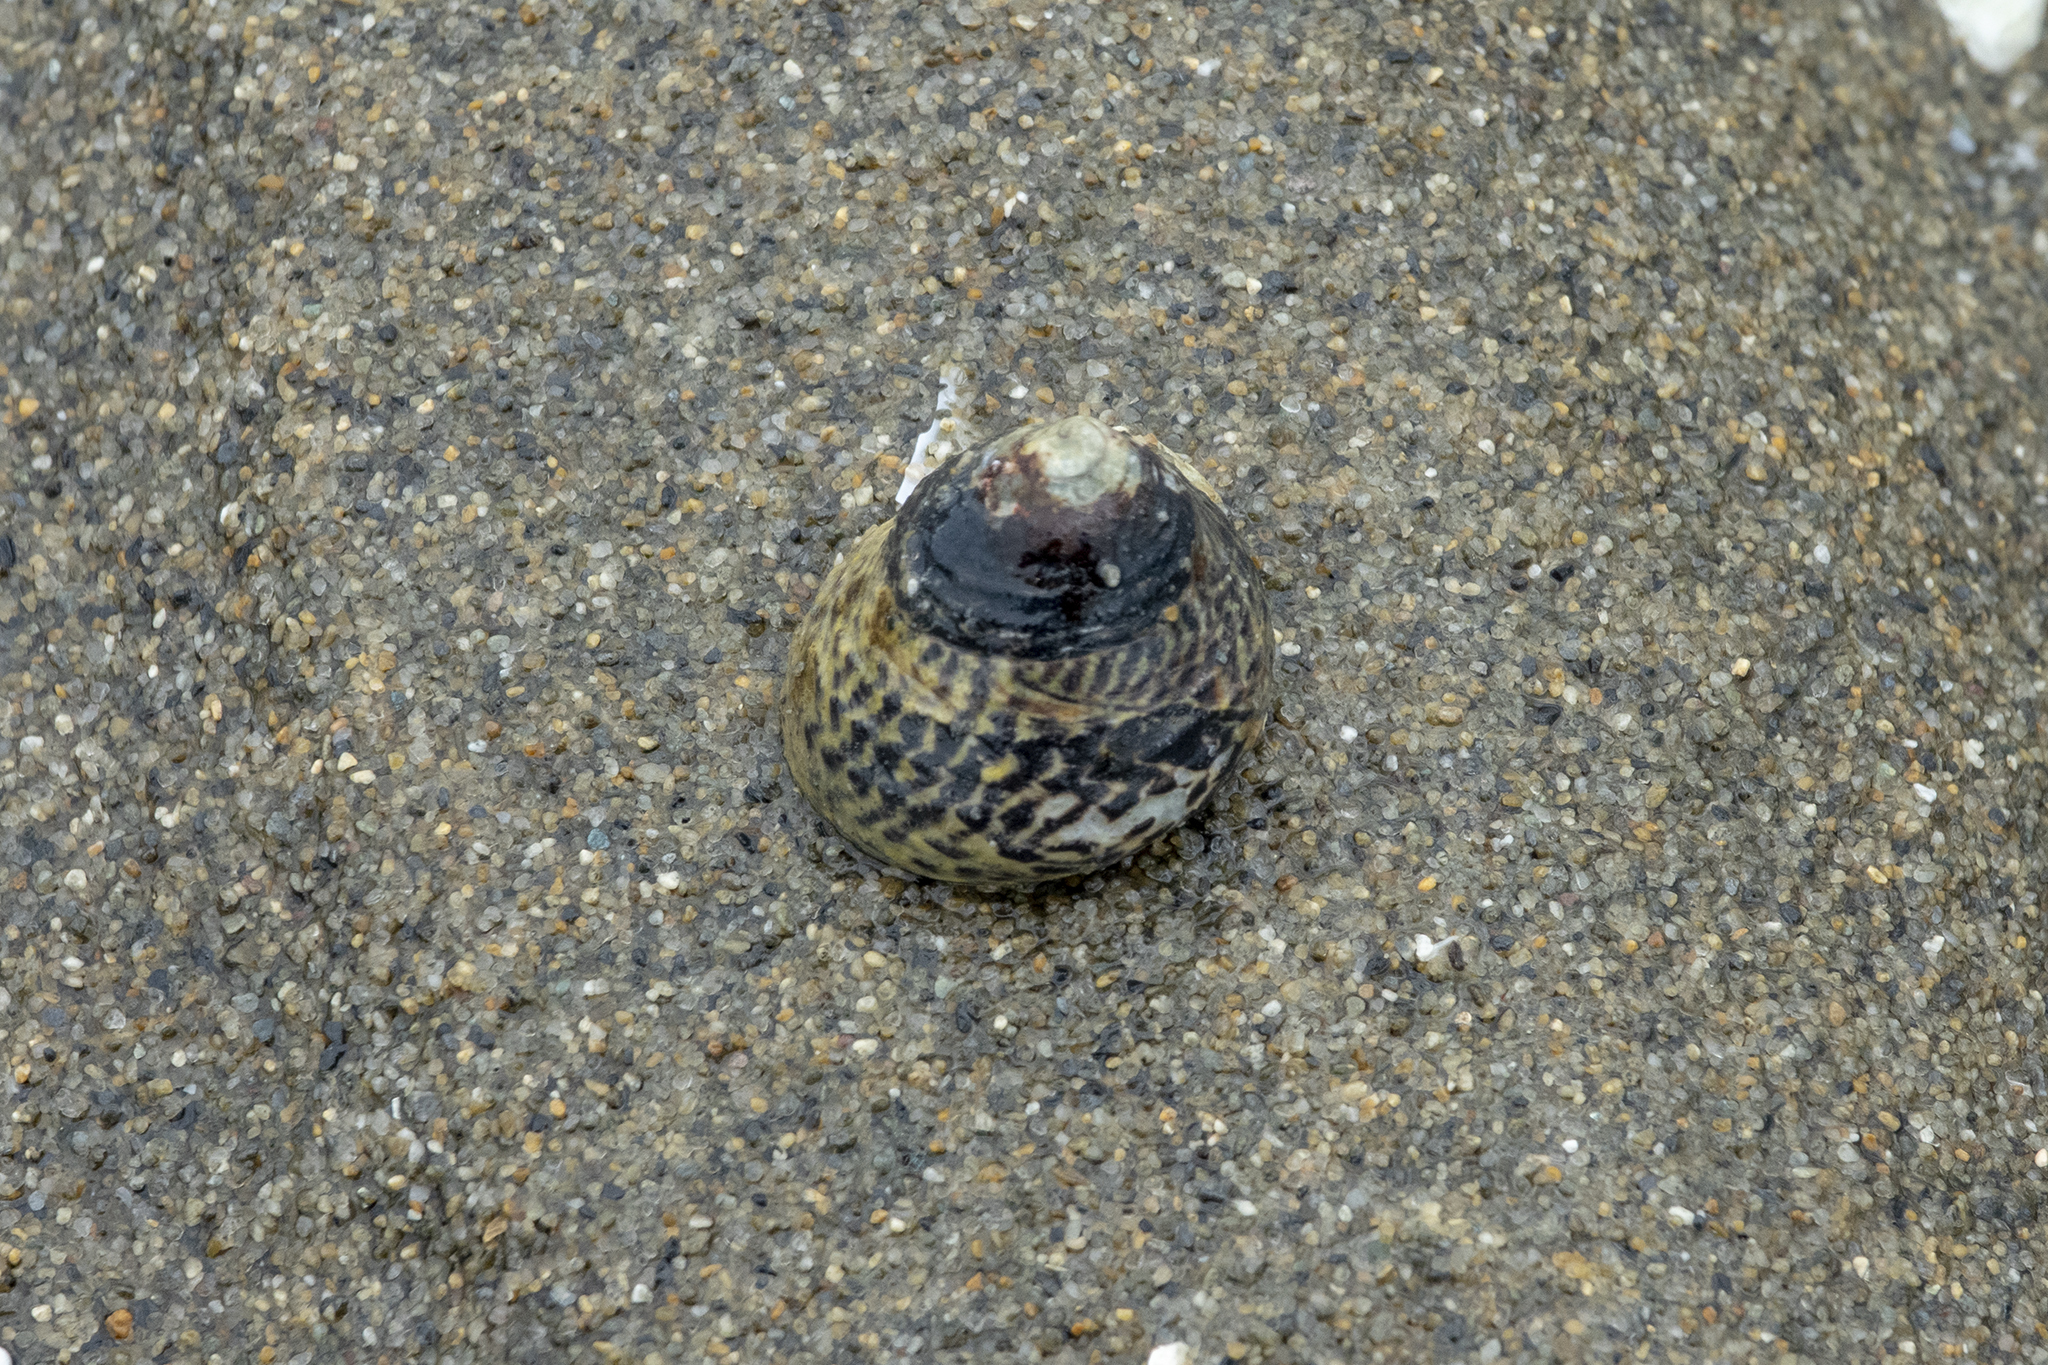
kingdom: Animalia
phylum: Mollusca
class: Gastropoda
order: Trochida
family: Trochidae
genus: Diloma
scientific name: Diloma subrostratum
